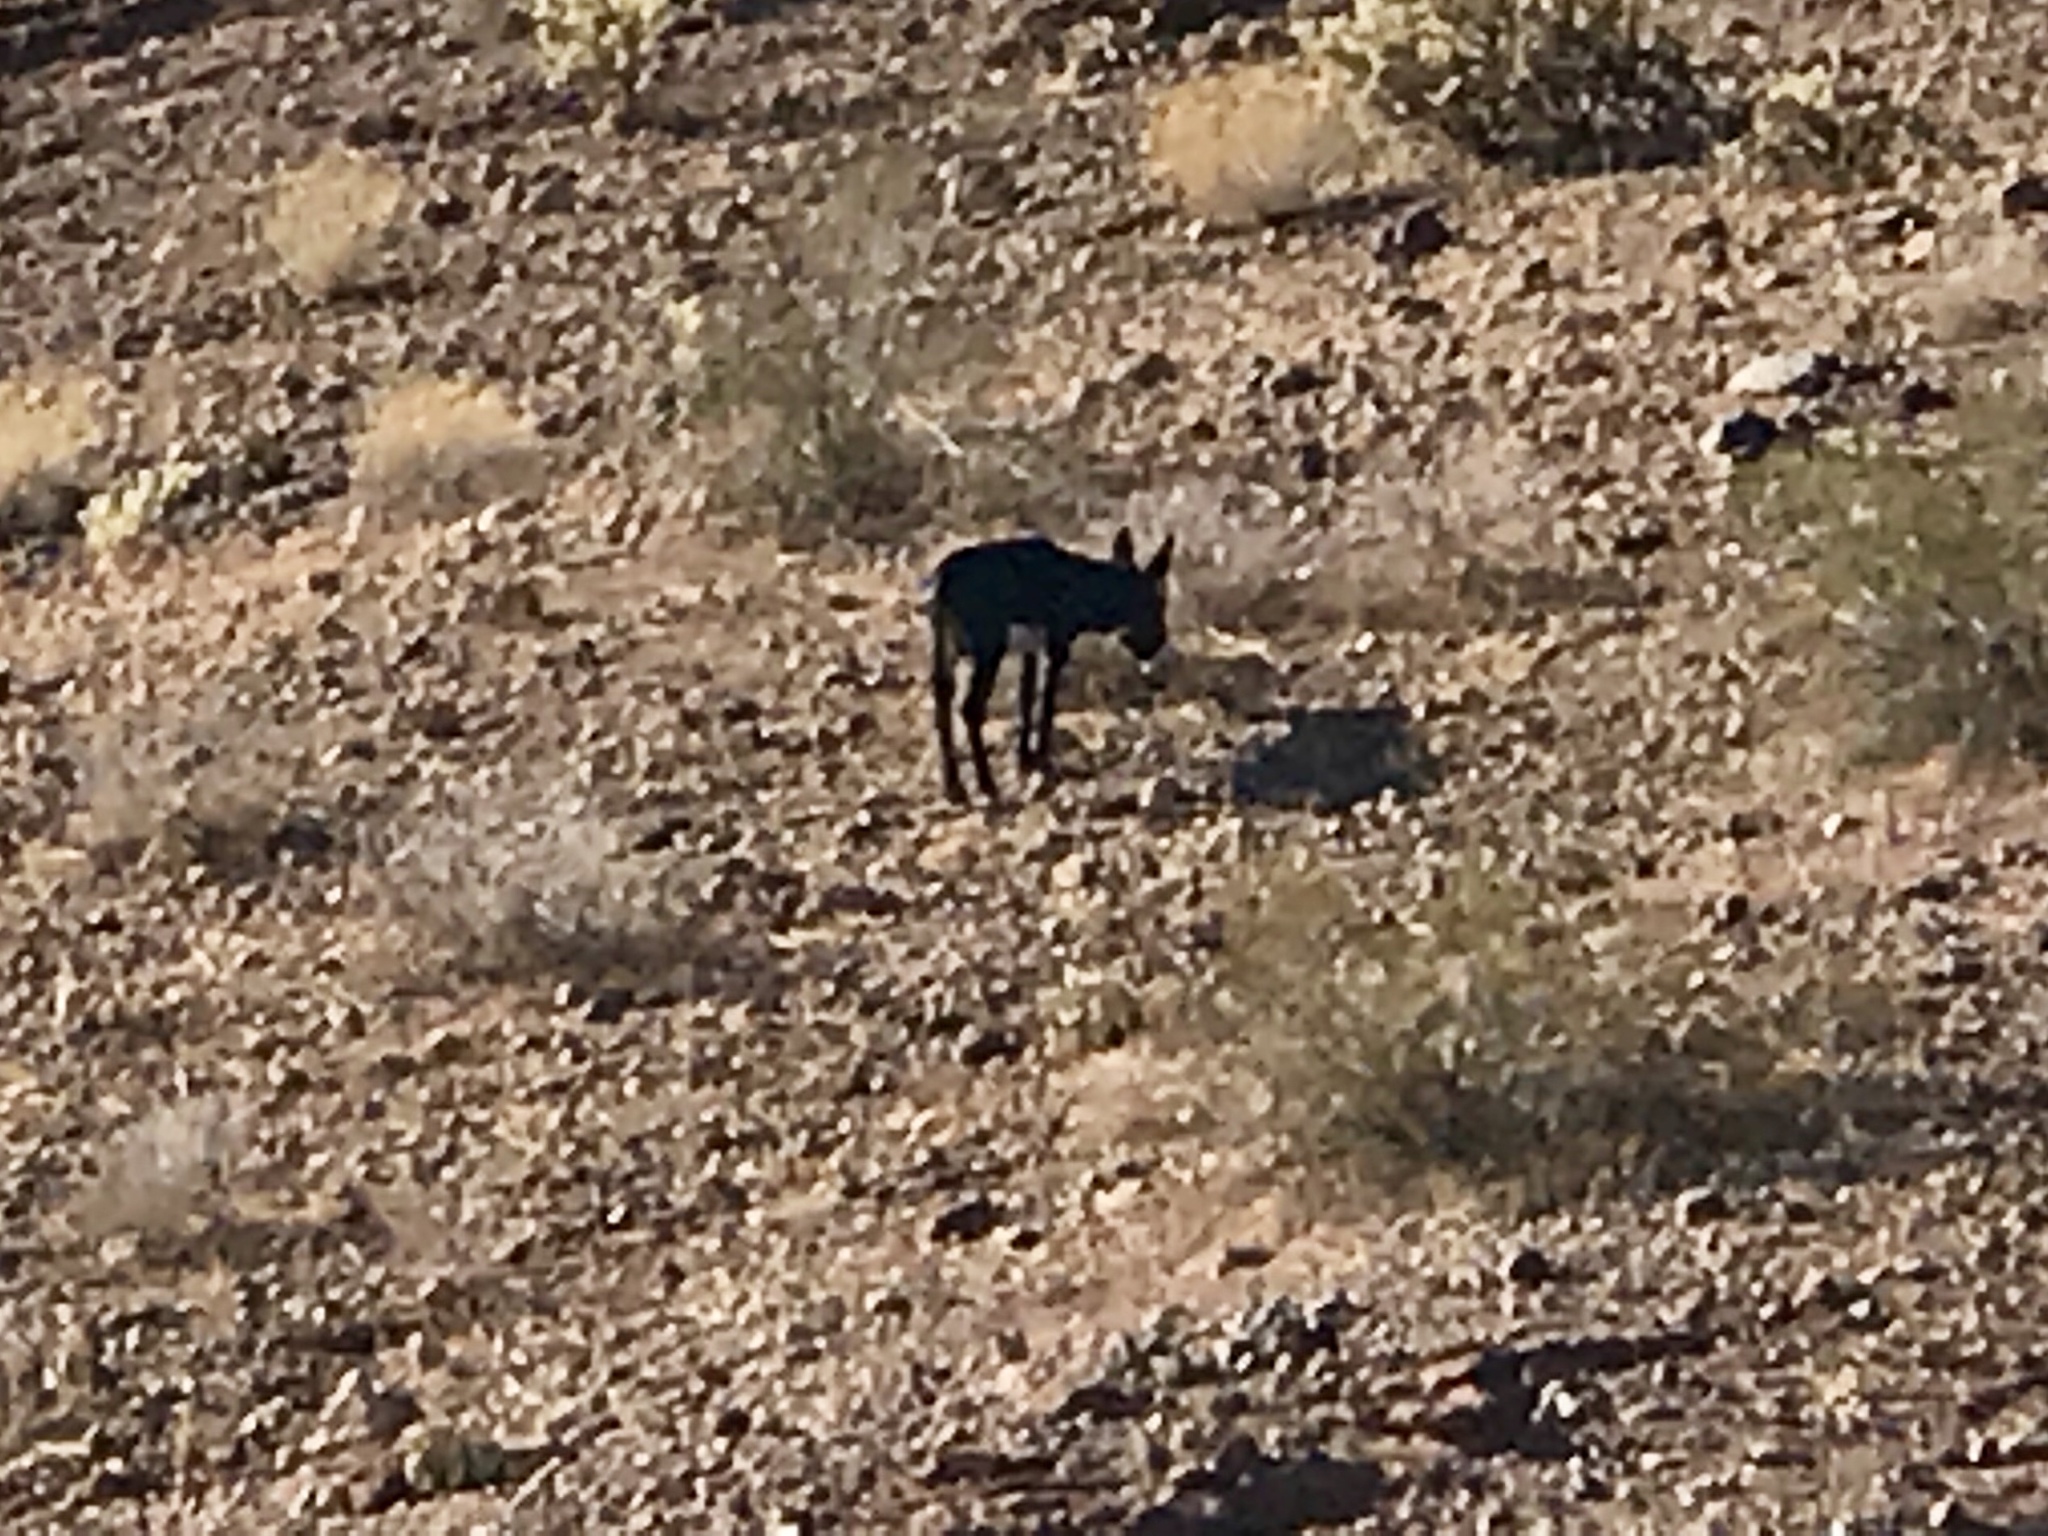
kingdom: Animalia
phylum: Chordata
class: Mammalia
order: Perissodactyla
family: Equidae
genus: Equus
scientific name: Equus asinus
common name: Ass
